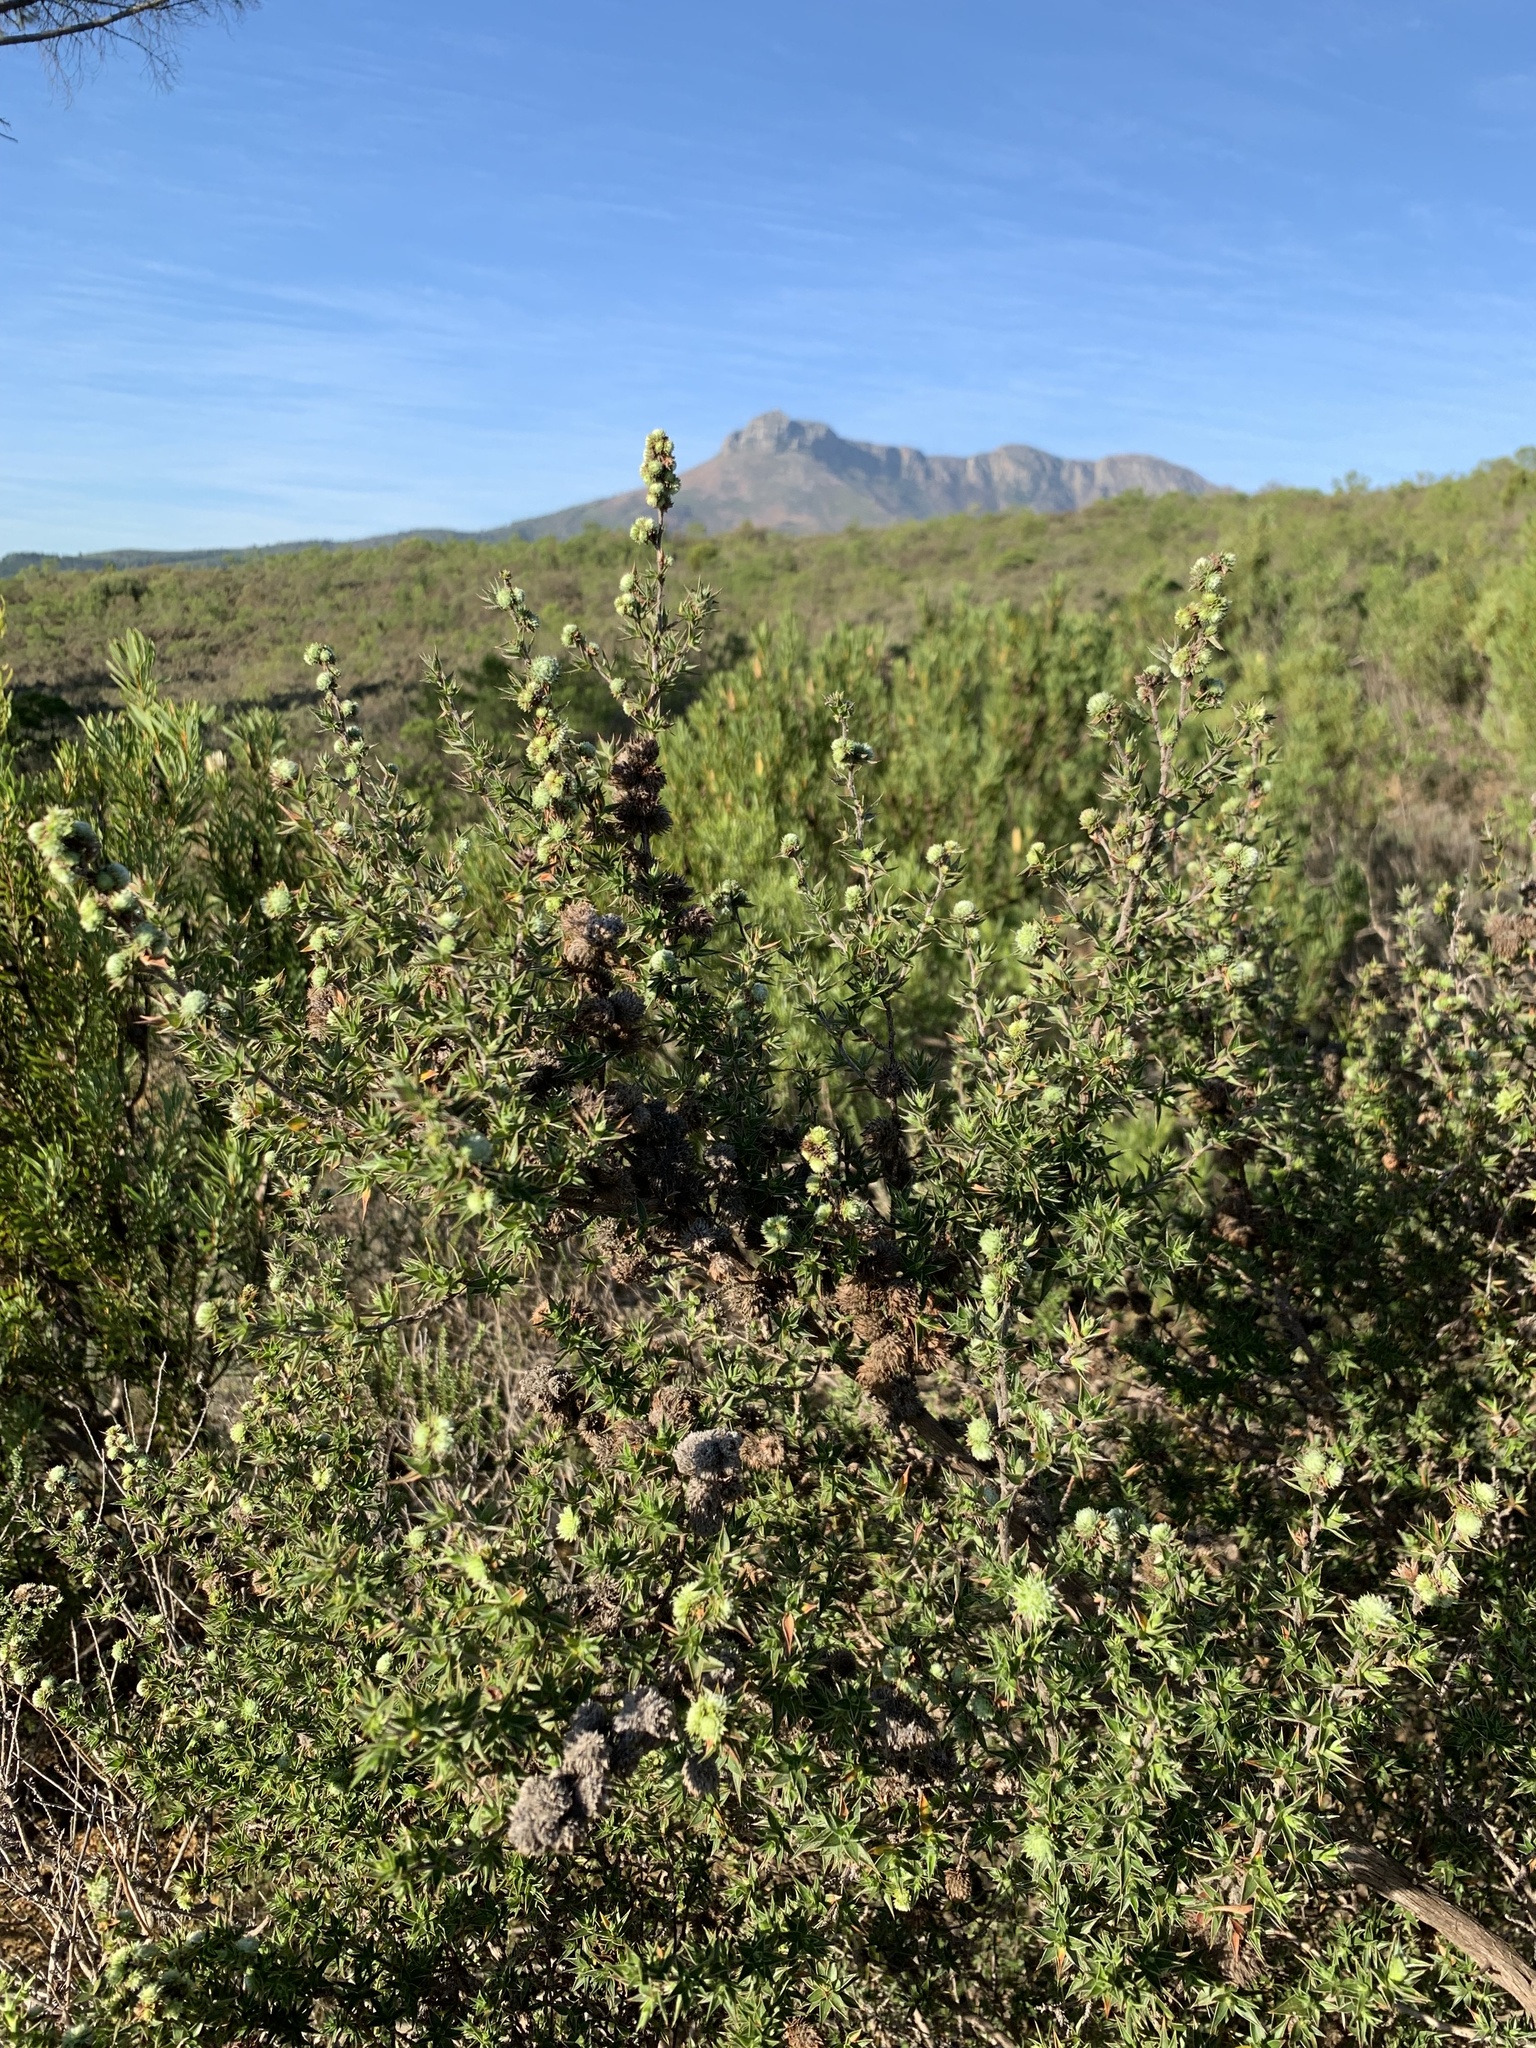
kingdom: Plantae
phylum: Tracheophyta
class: Magnoliopsida
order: Rosales
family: Rosaceae
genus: Cliffortia
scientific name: Cliffortia ruscifolia
